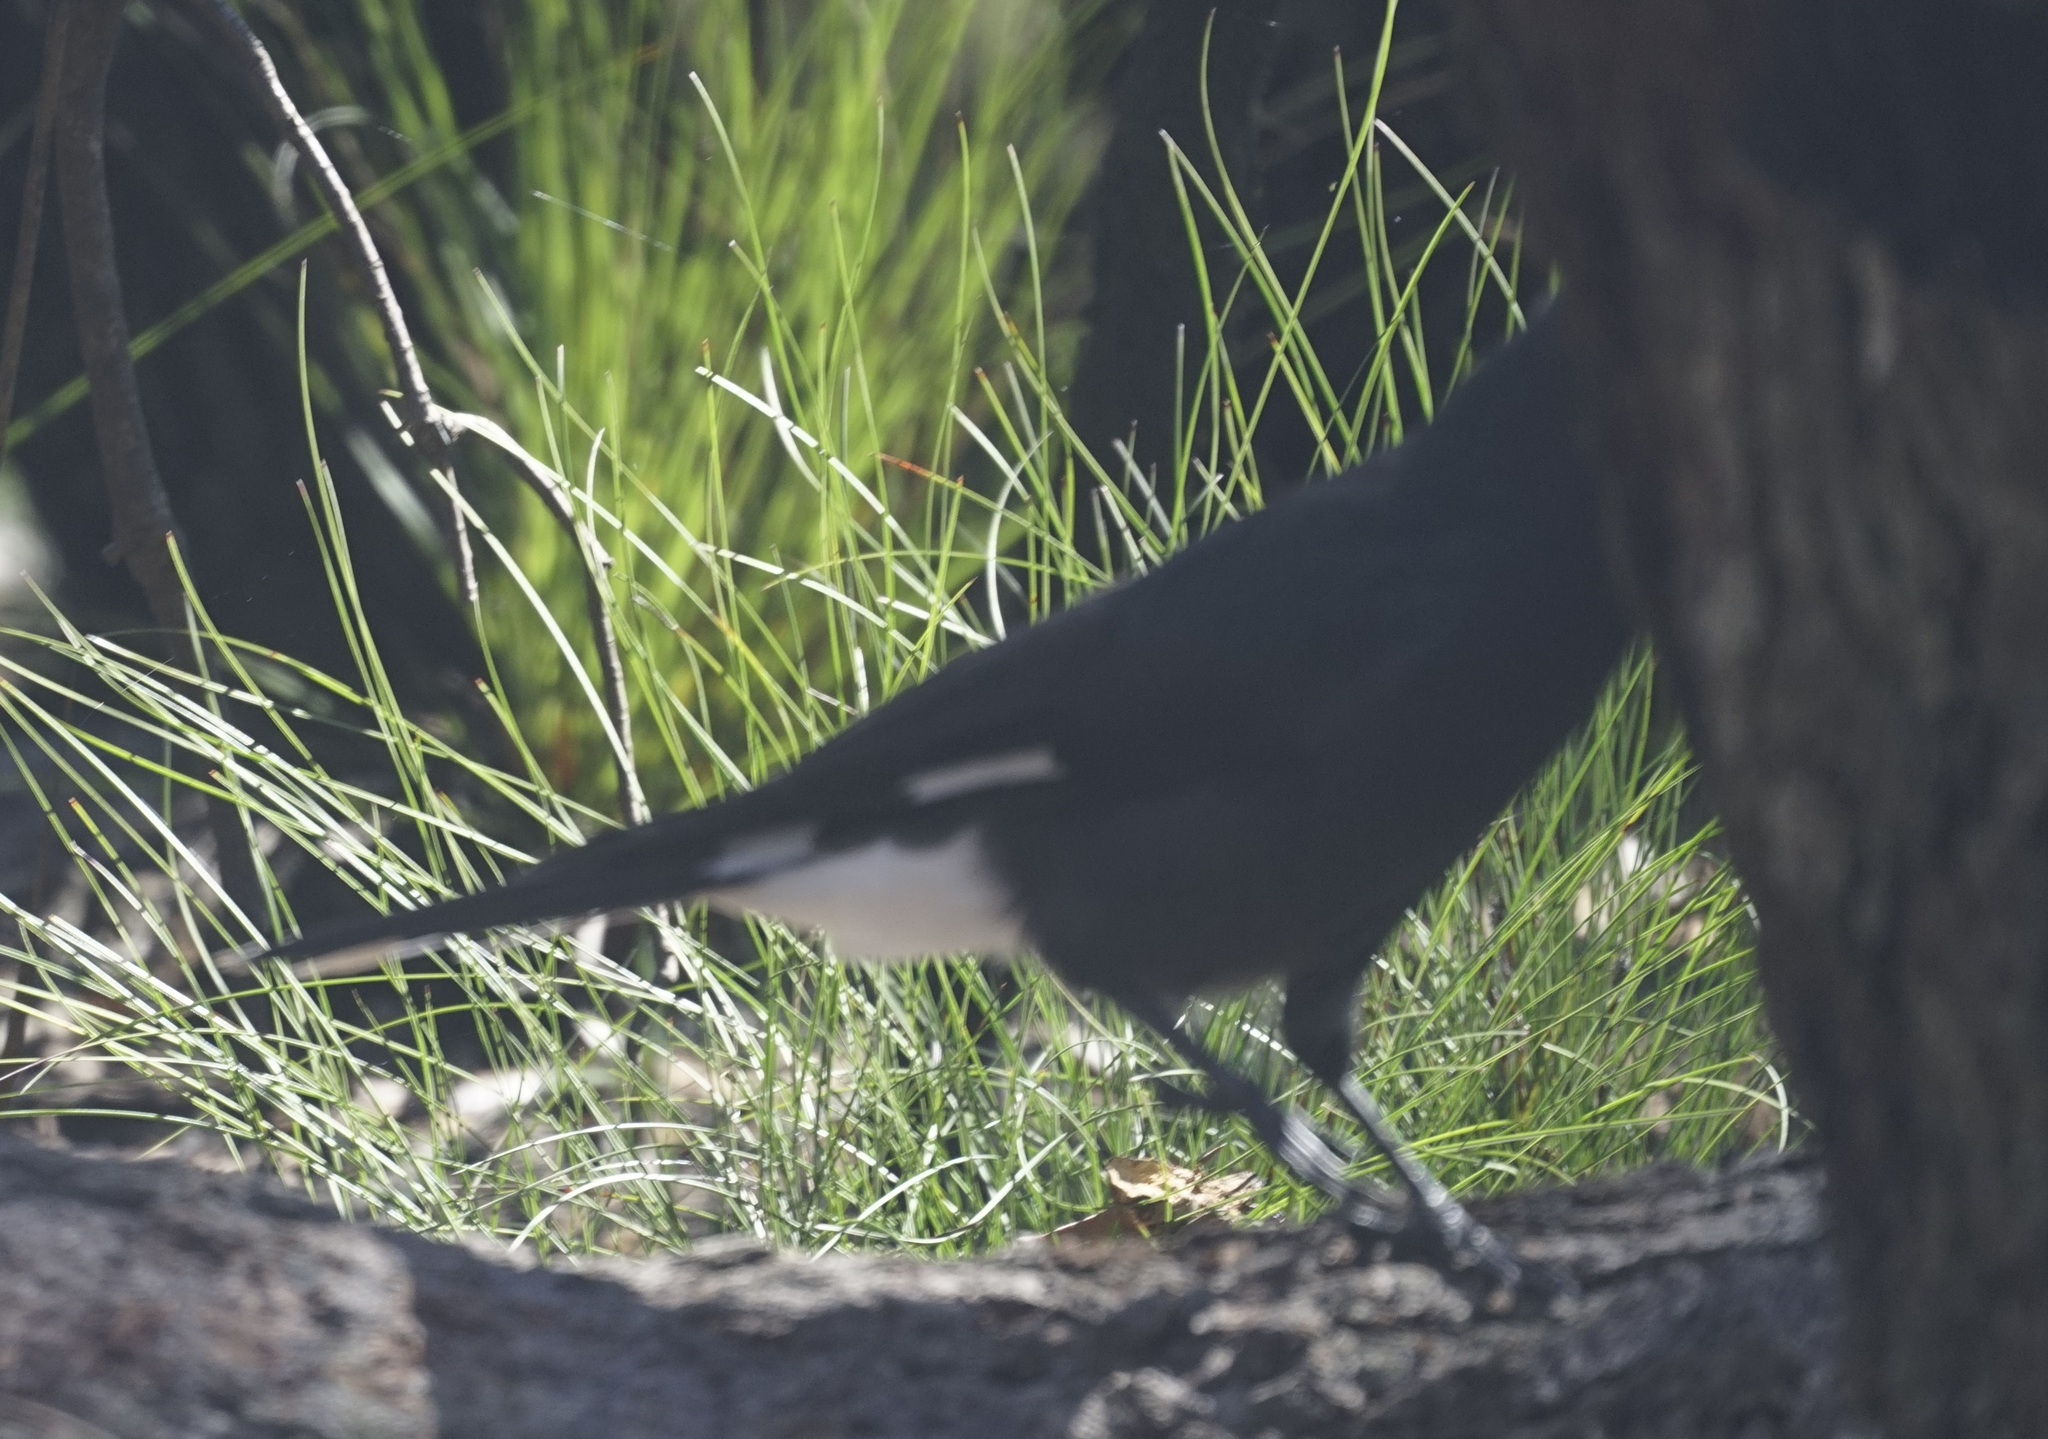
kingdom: Animalia
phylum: Chordata
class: Aves
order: Passeriformes
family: Cracticidae
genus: Strepera
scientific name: Strepera graculina
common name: Pied currawong
